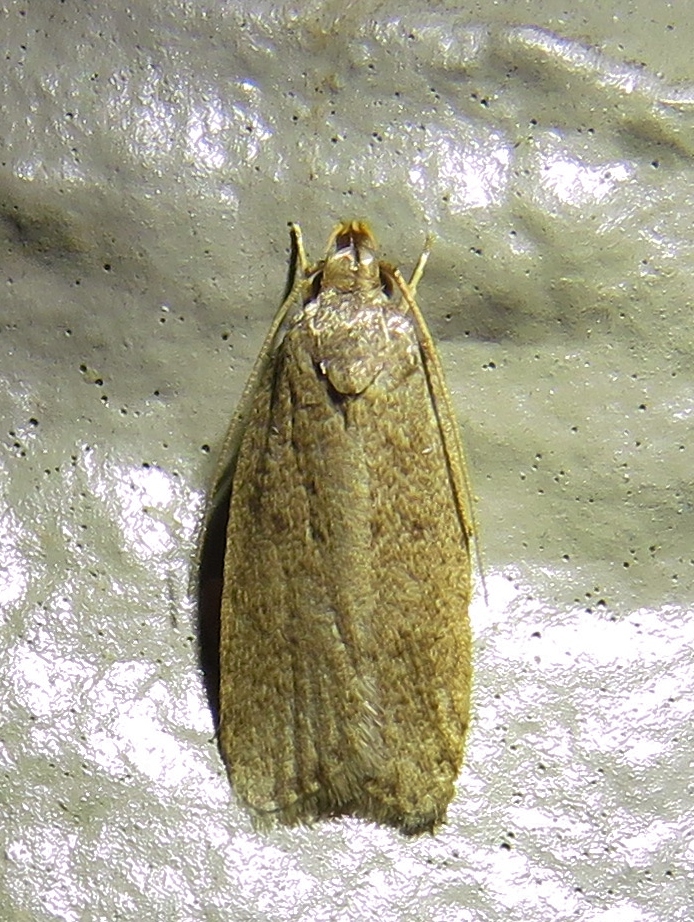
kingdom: Animalia
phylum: Arthropoda
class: Insecta
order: Lepidoptera
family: Autostichidae
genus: Autosticha
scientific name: Autosticha kyotensis
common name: Kyoto moth
